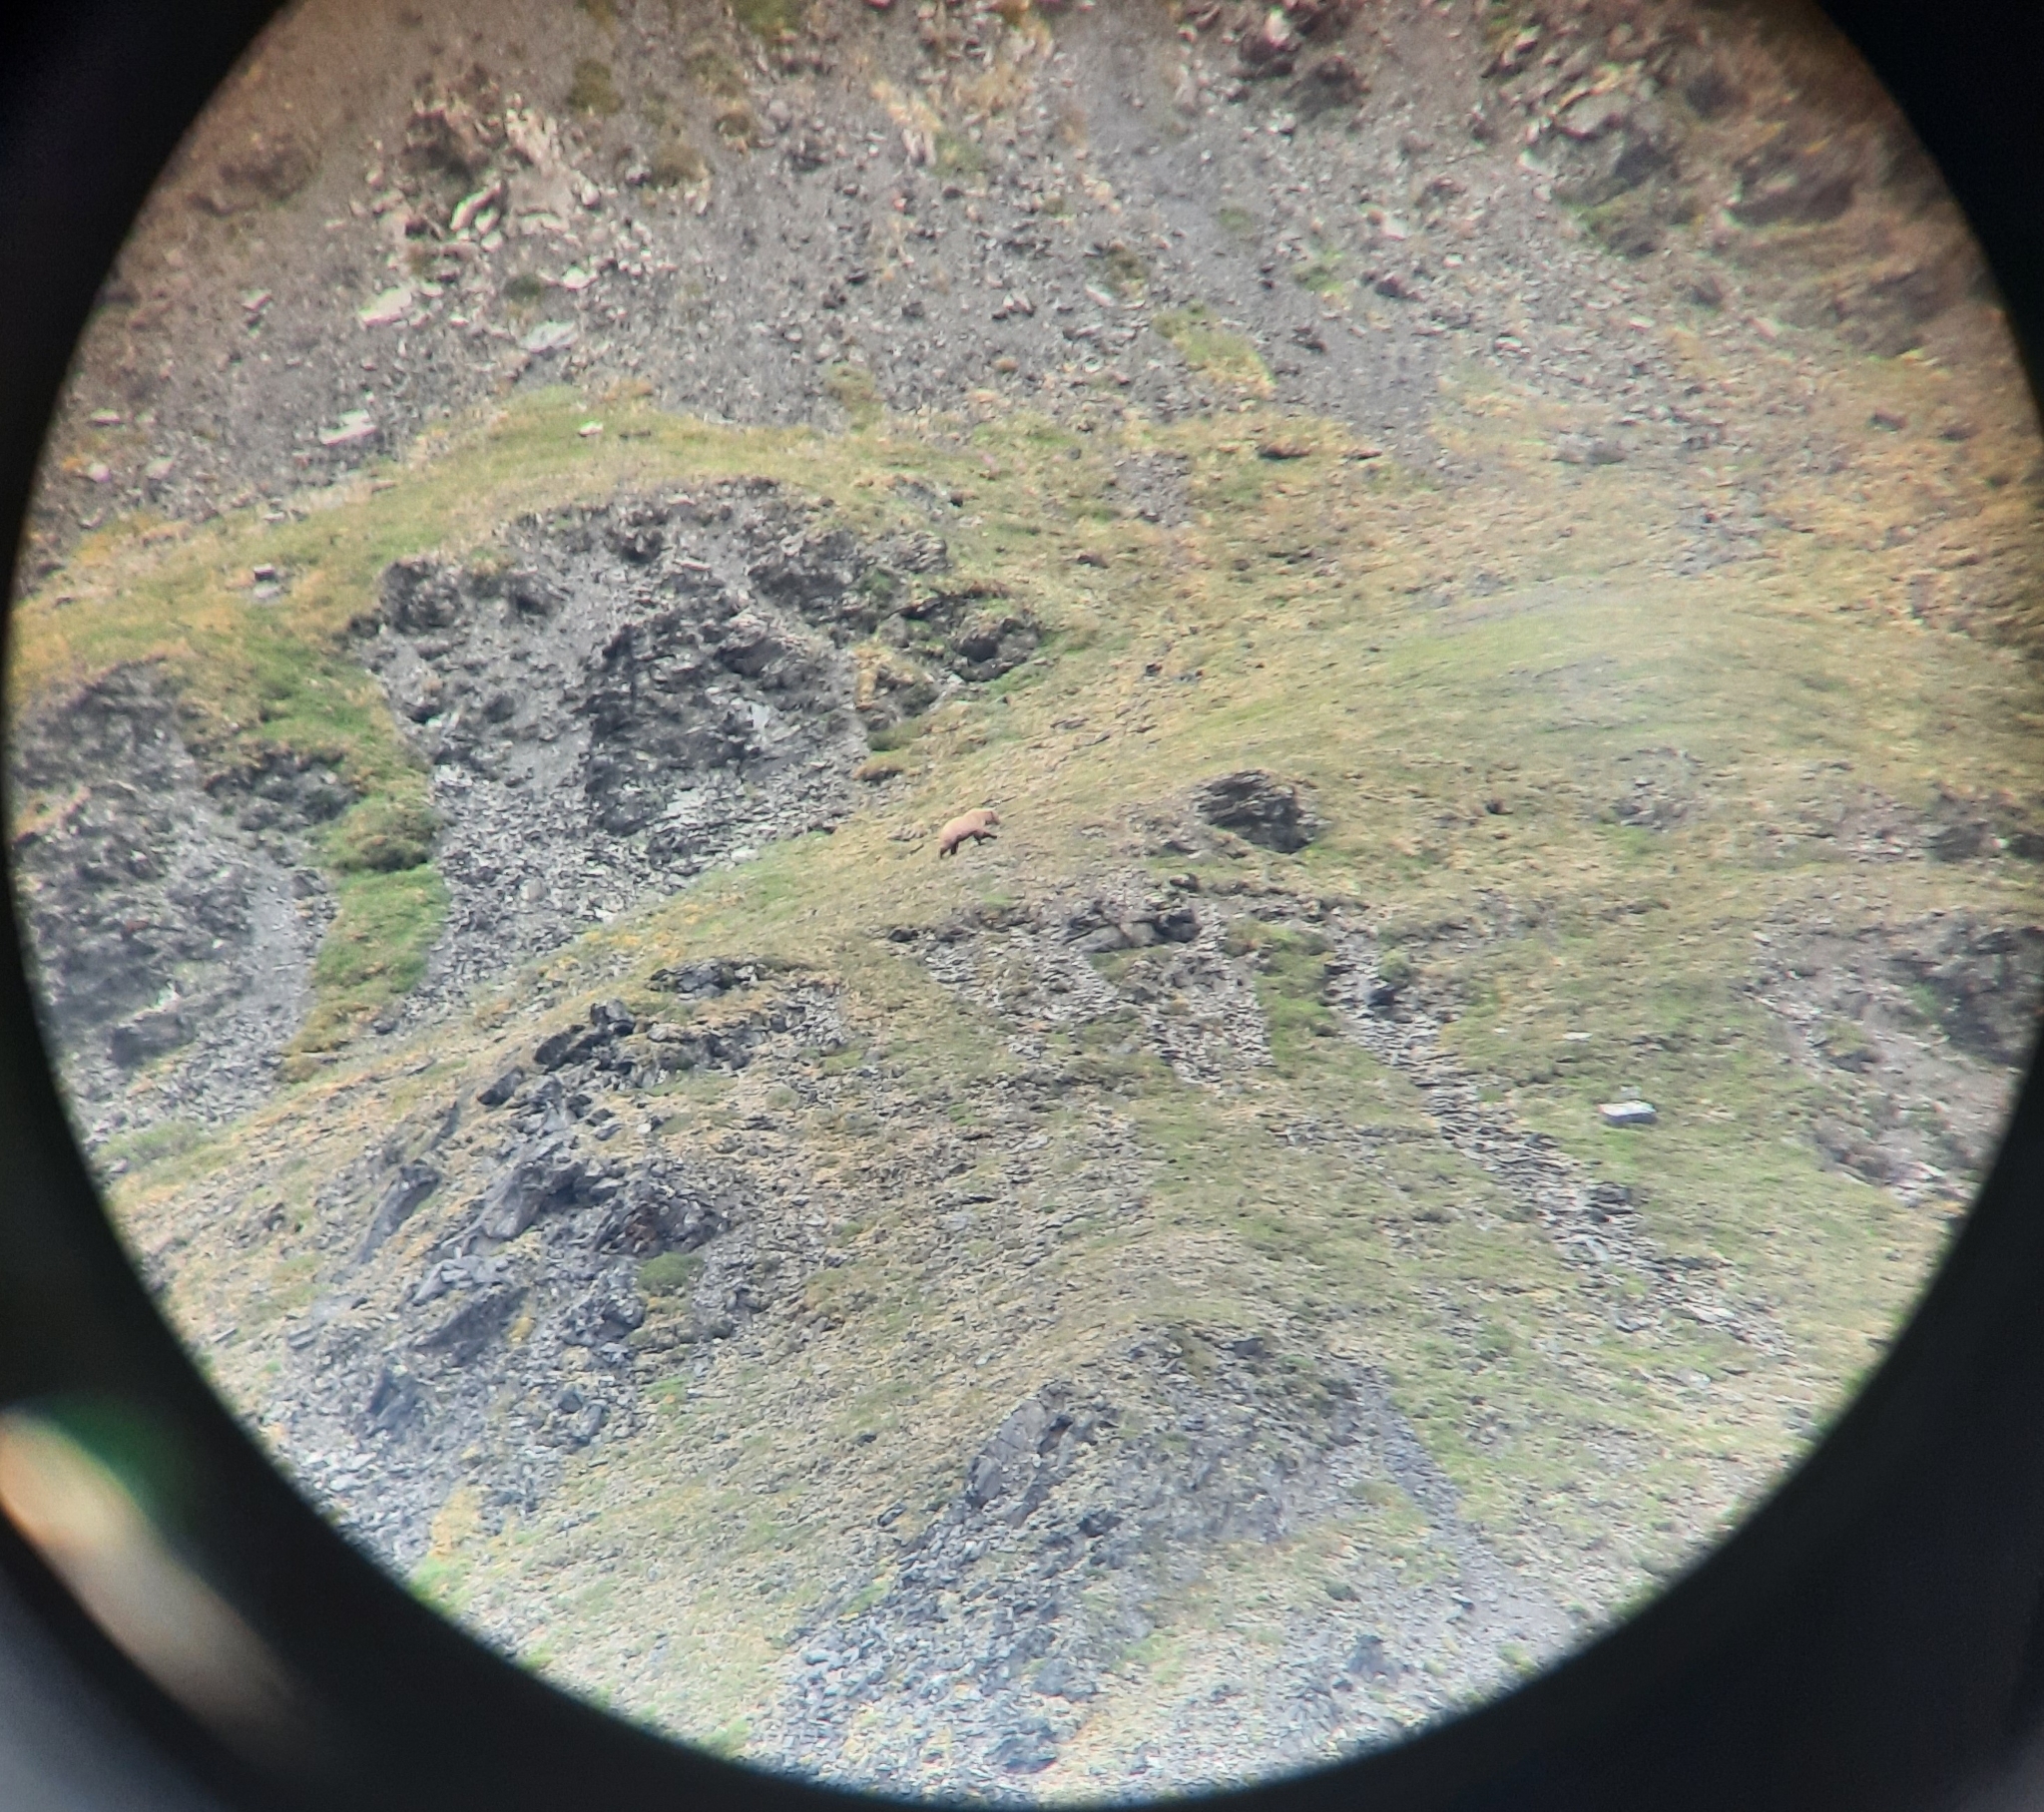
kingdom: Animalia
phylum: Chordata
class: Mammalia
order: Carnivora
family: Ursidae
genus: Ursus
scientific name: Ursus arctos
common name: Brown bear
